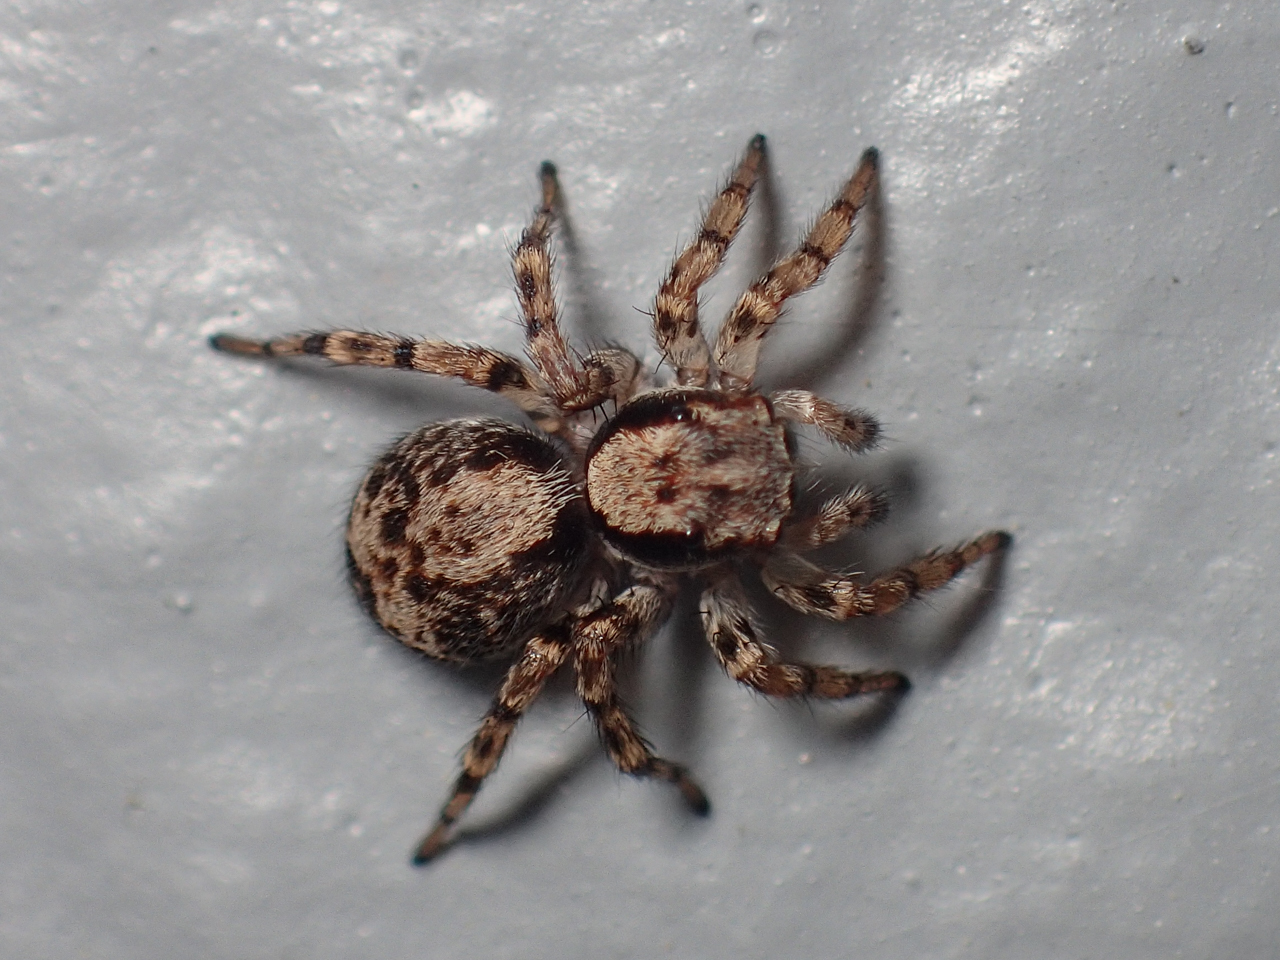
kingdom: Animalia
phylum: Arthropoda
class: Arachnida
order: Araneae
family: Salticidae
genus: Naphrys
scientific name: Naphrys pulex
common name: Flea jumping spider
